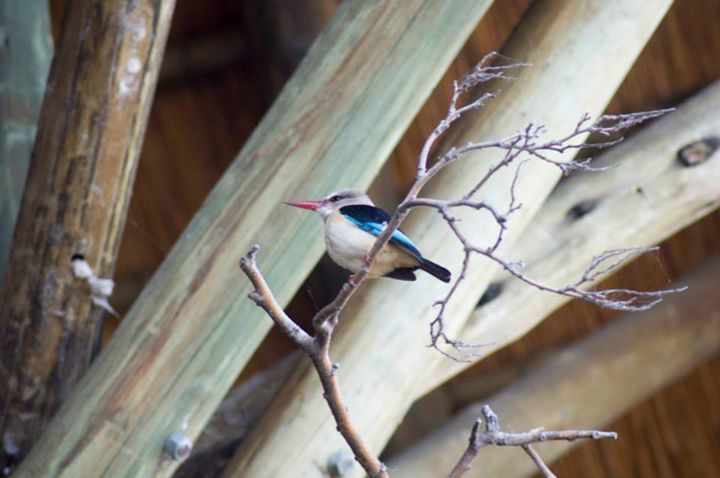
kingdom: Animalia
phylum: Chordata
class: Aves
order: Coraciiformes
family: Alcedinidae
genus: Halcyon
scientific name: Halcyon albiventris
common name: Brown-hooded kingfisher
